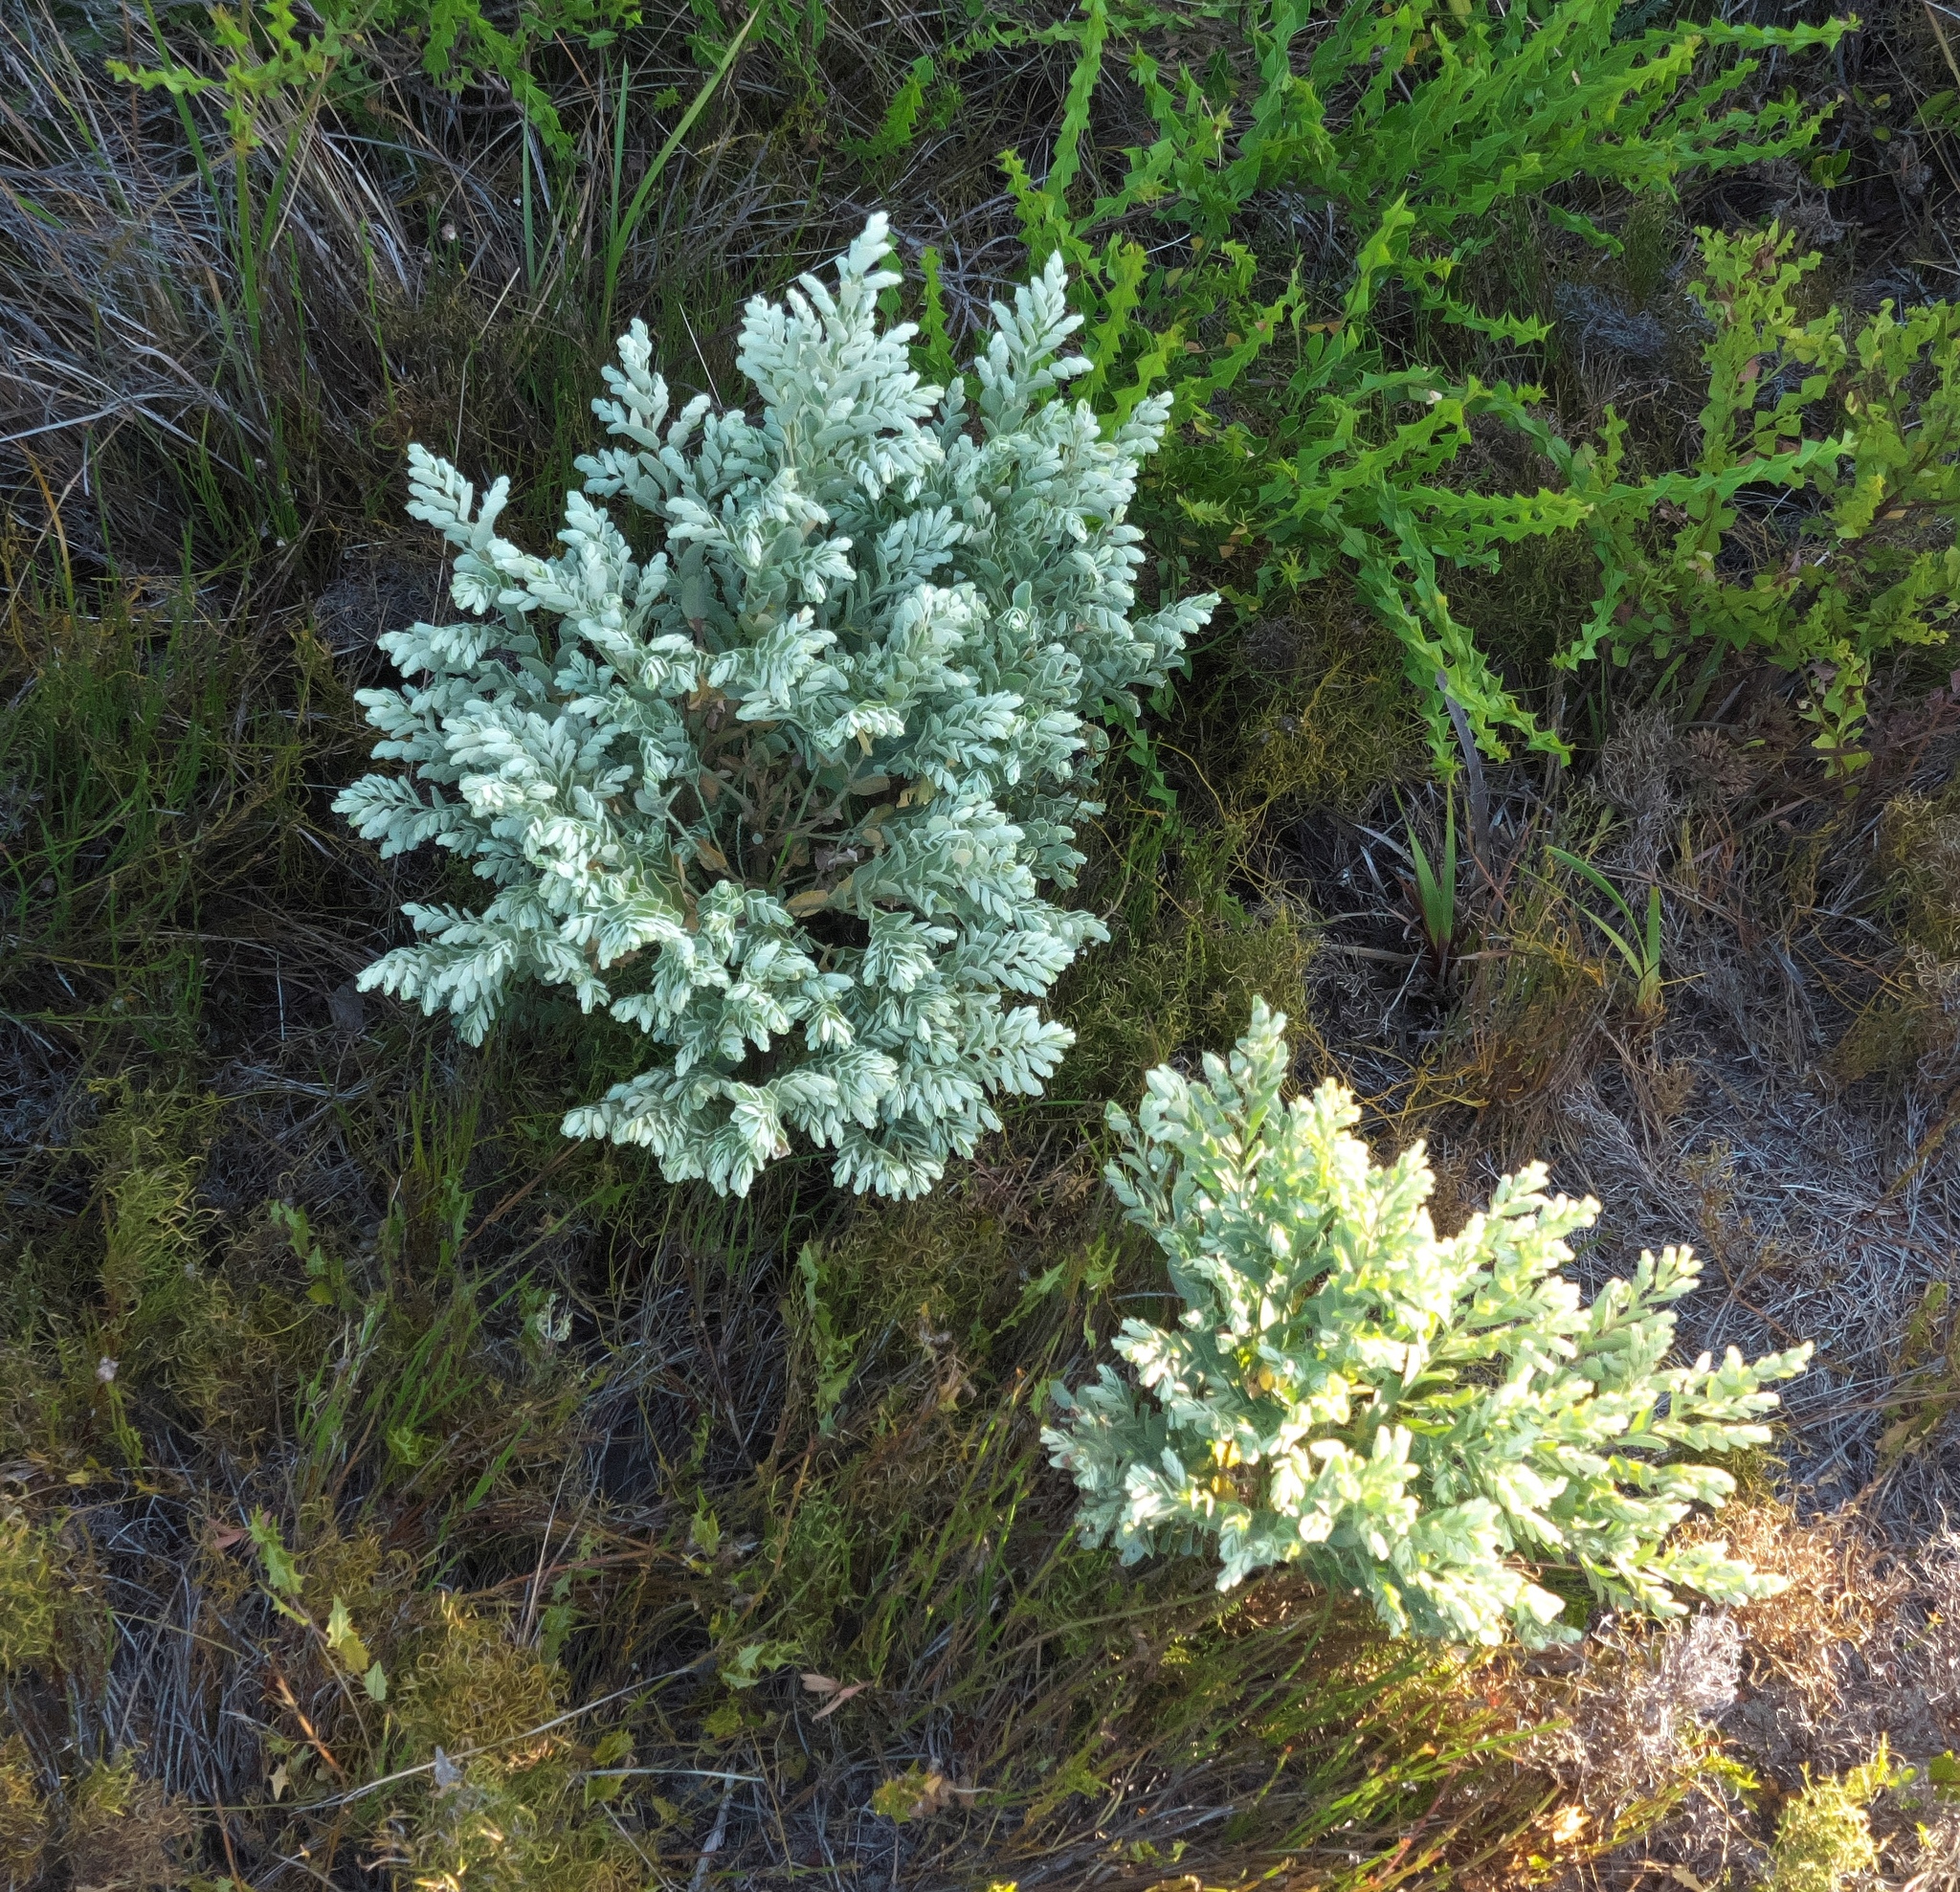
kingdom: Plantae
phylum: Tracheophyta
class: Magnoliopsida
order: Santalales
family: Olacaceae
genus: Olax
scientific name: Olax phyllanthi
